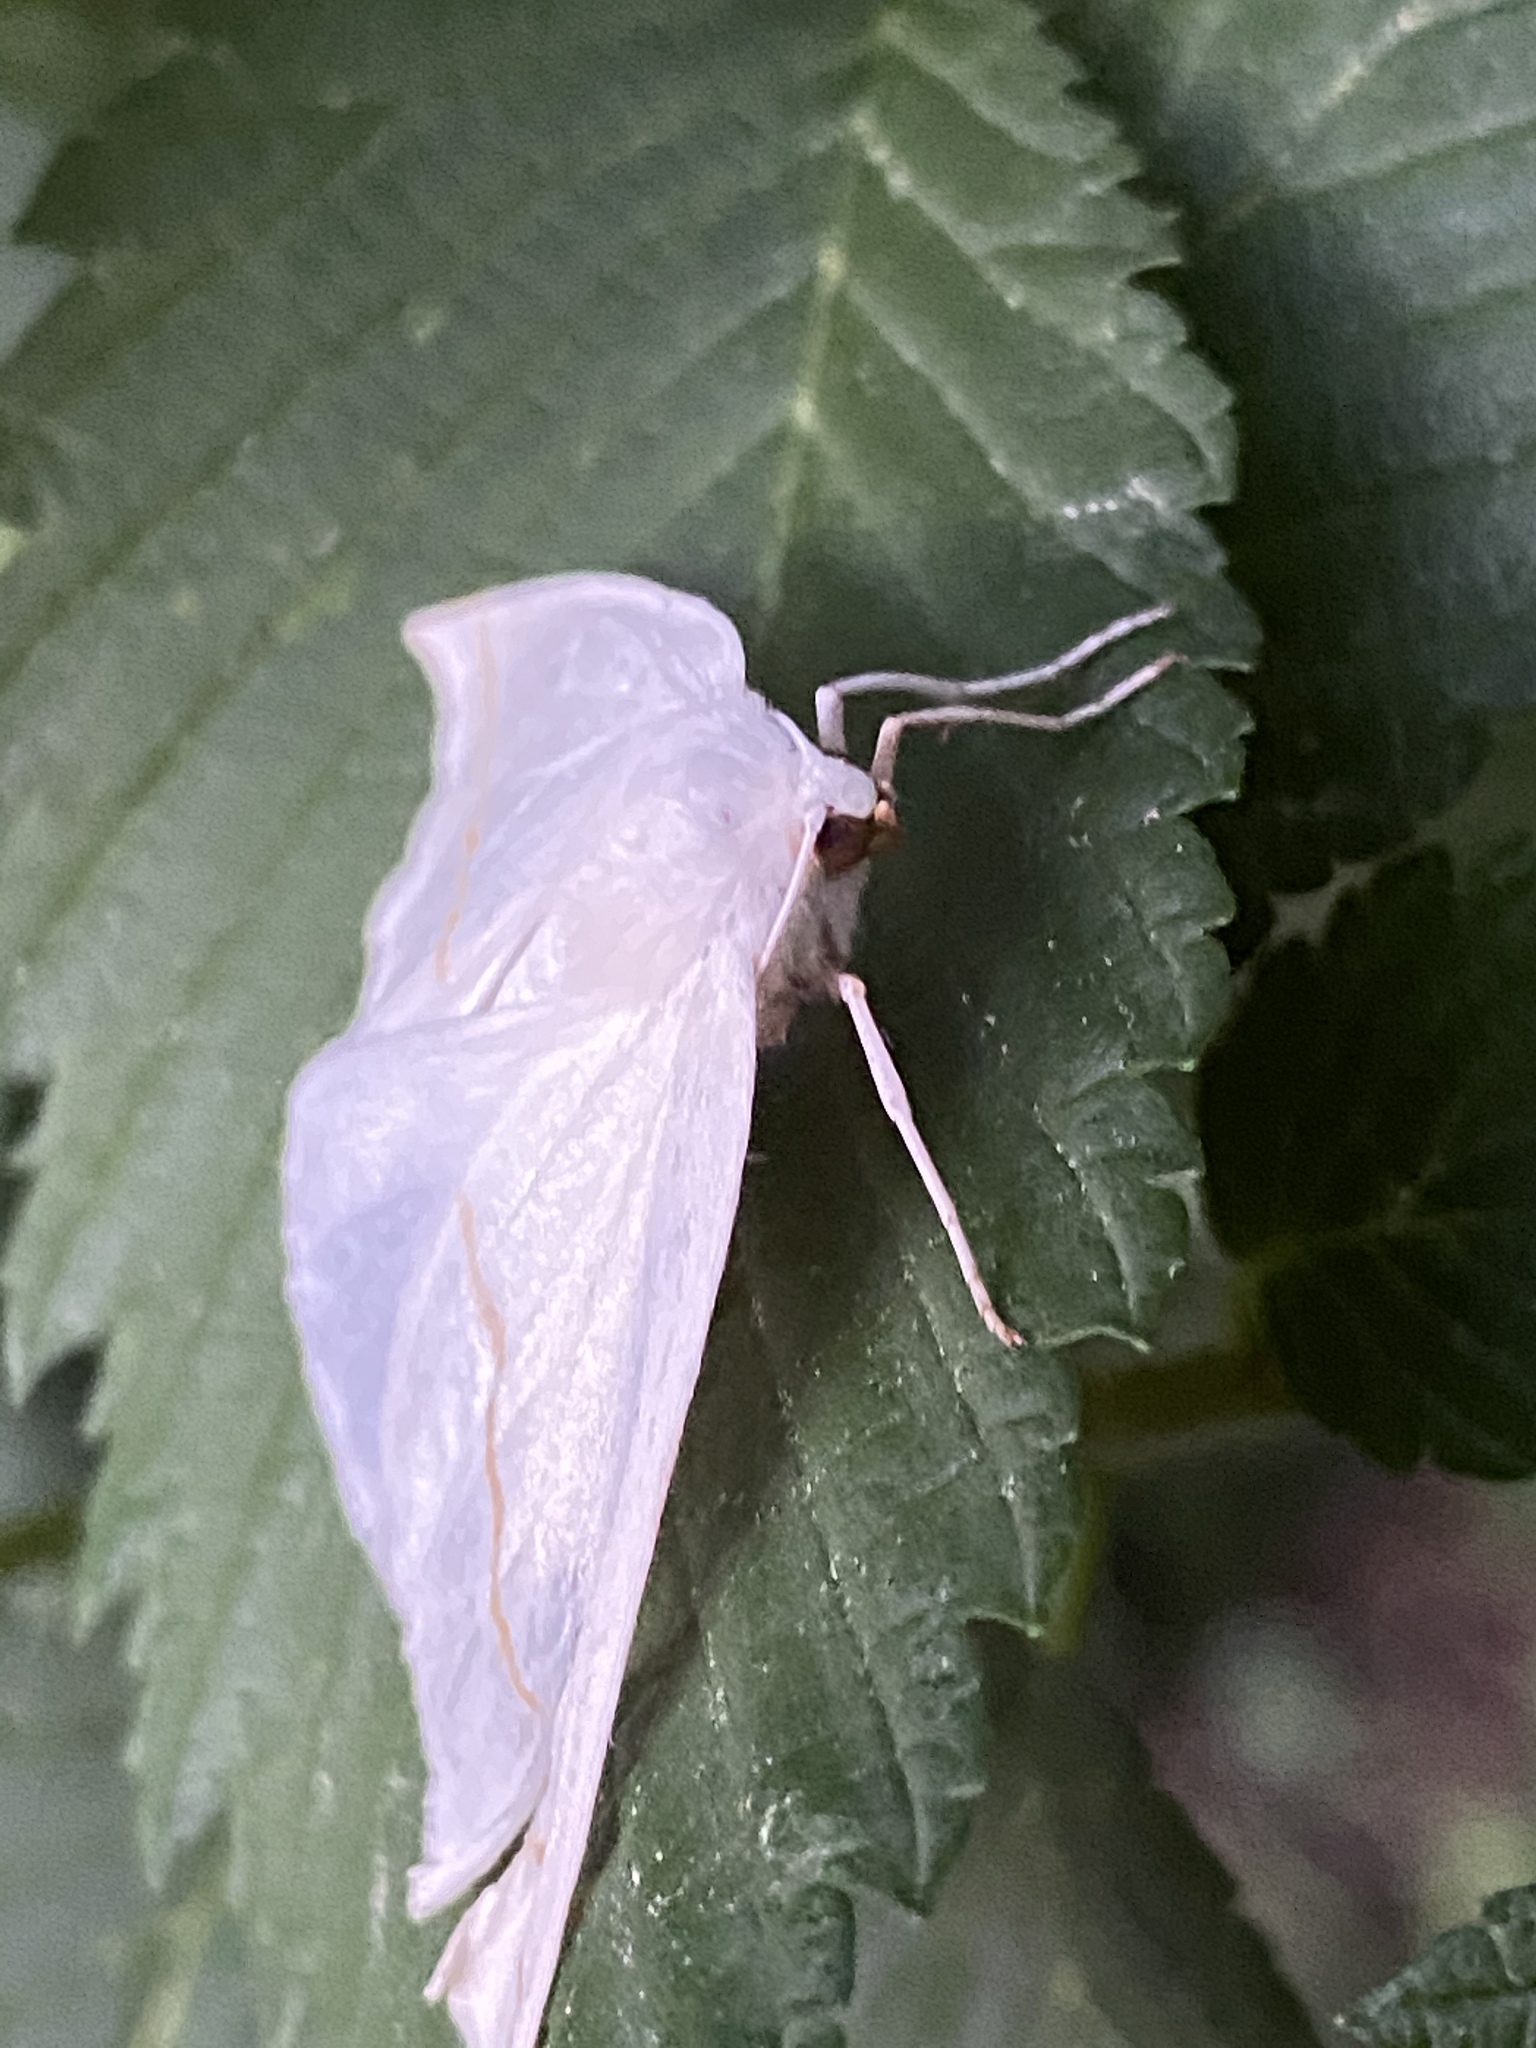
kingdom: Animalia
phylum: Arthropoda
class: Insecta
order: Lepidoptera
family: Geometridae
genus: Tetracis
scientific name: Tetracis cachexiata
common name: White slant-line
